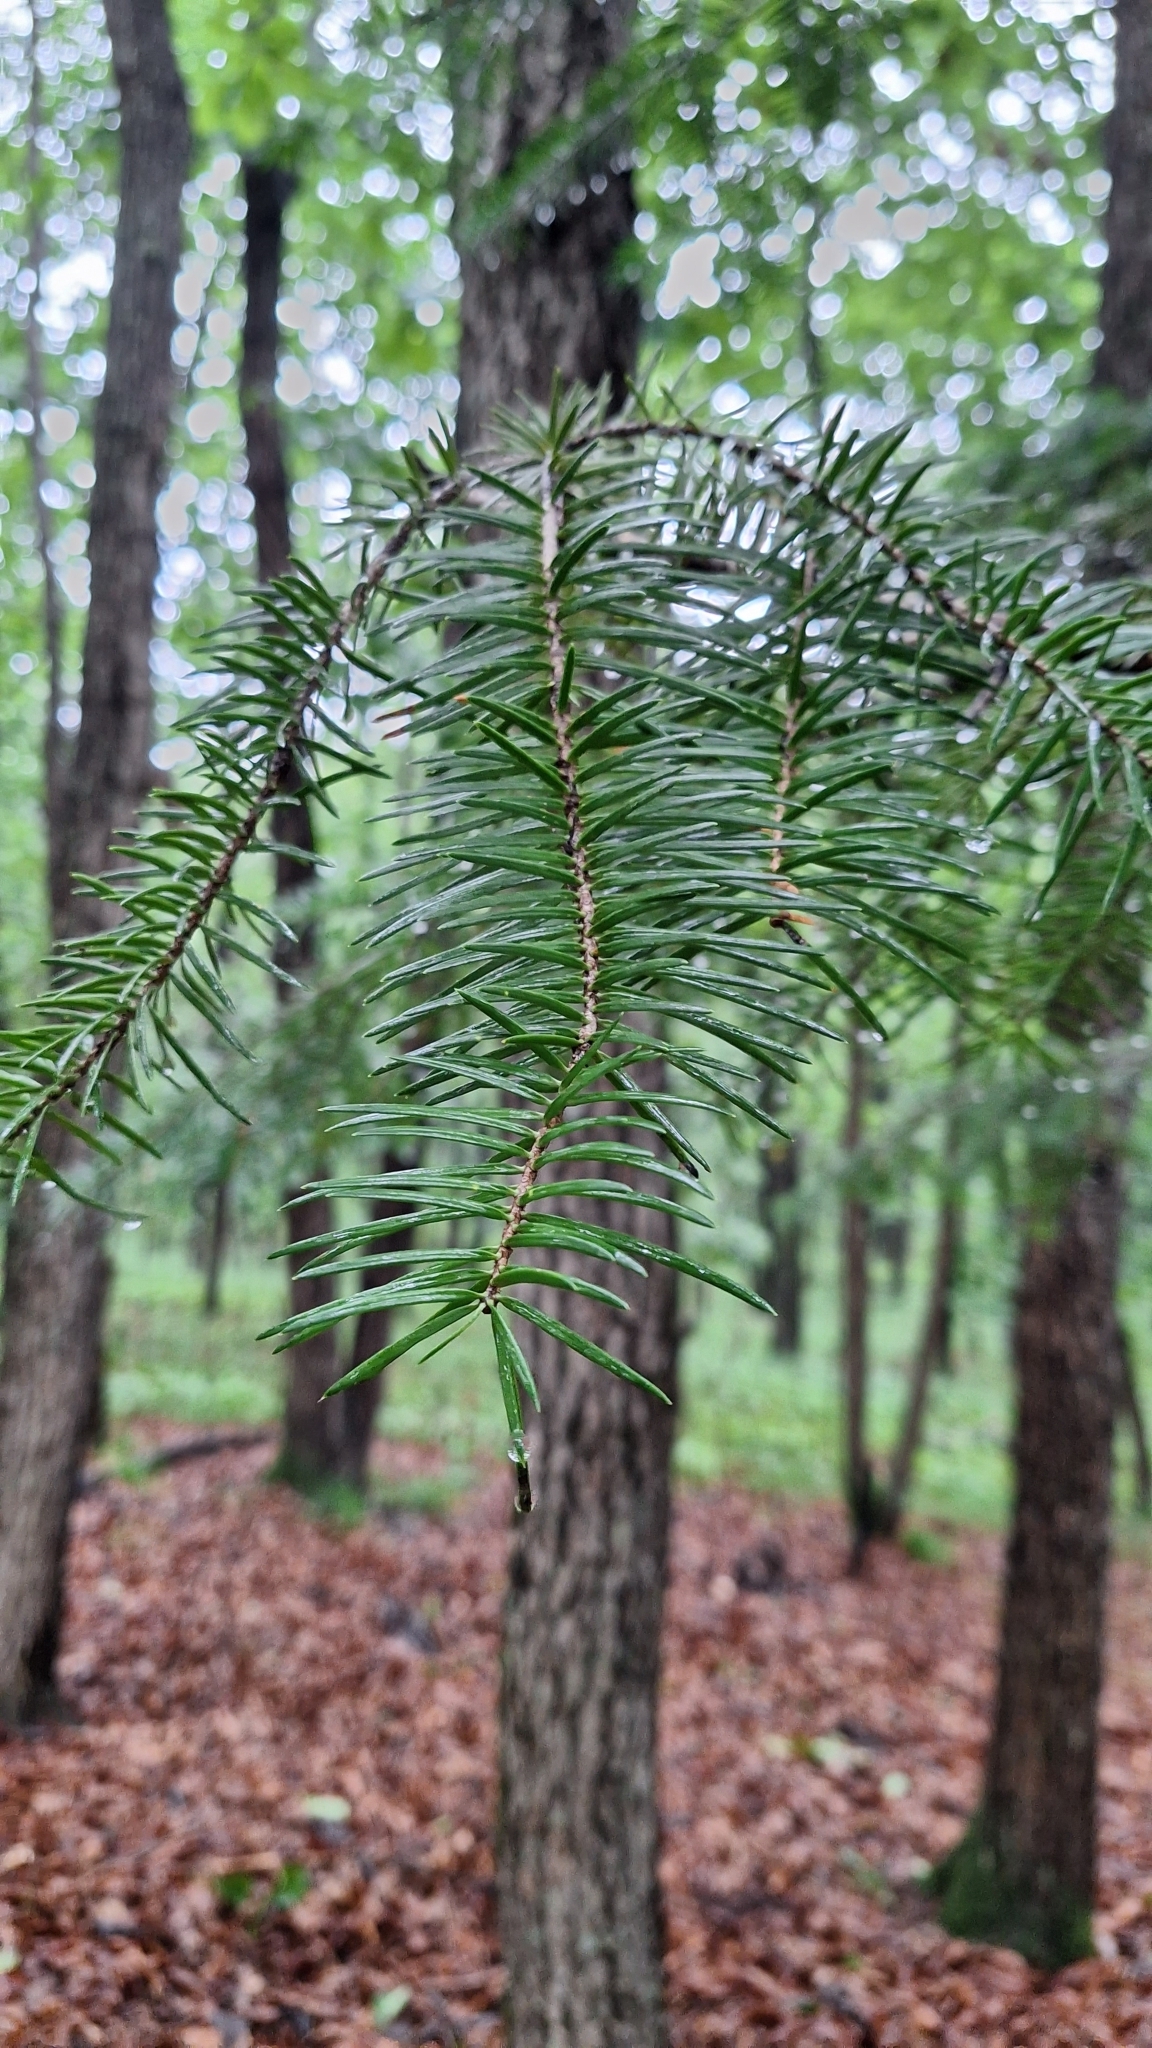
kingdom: Plantae
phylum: Tracheophyta
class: Pinopsida
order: Pinales
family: Pinaceae
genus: Abies
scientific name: Abies holophylla
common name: Manchurian fir
